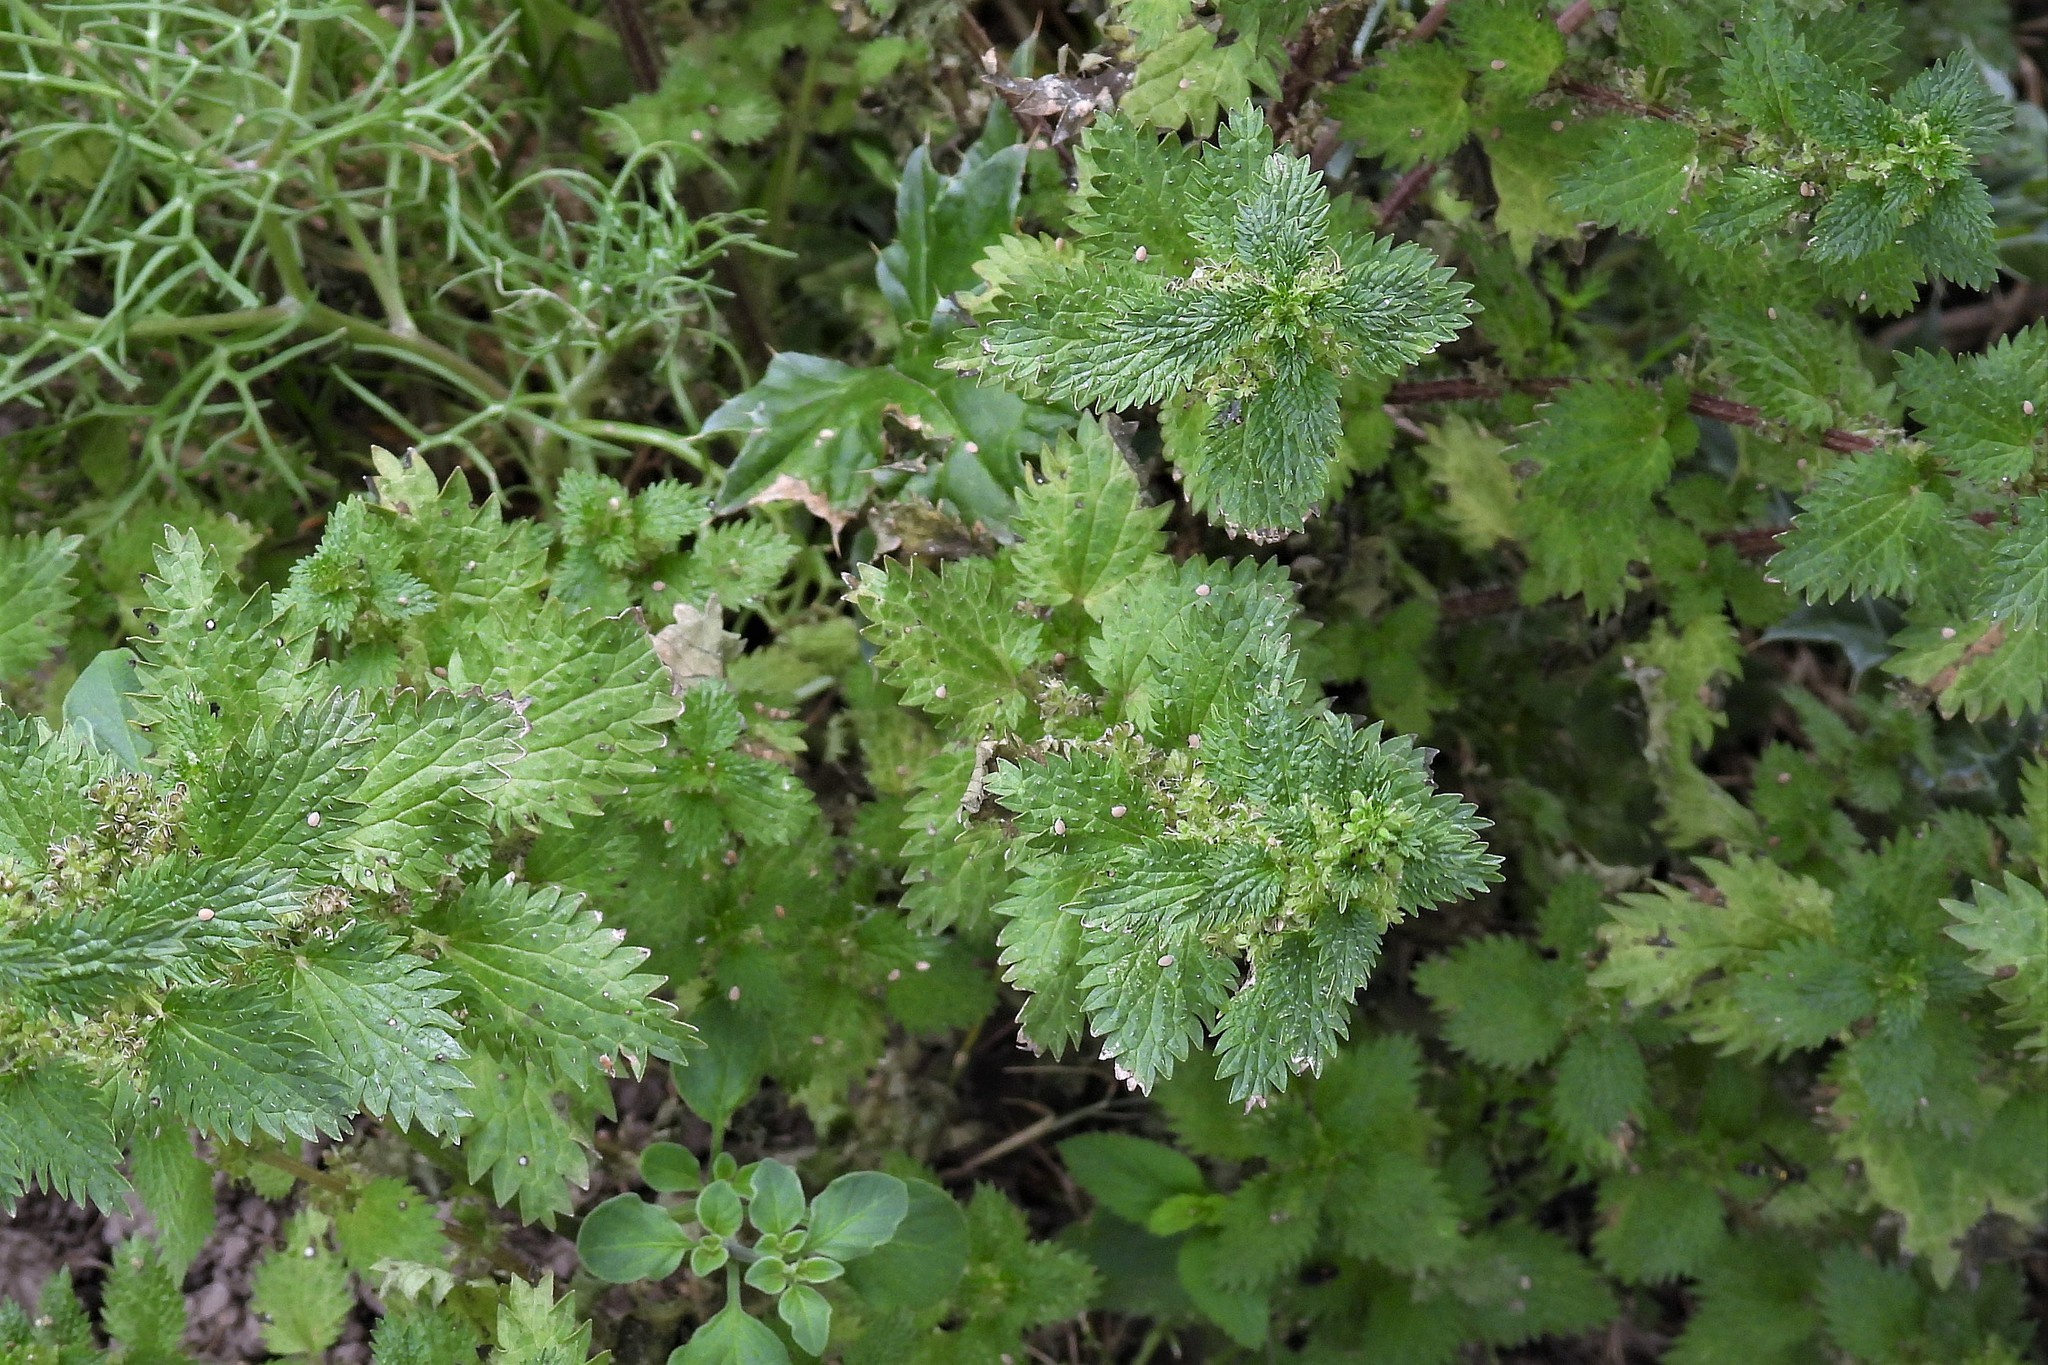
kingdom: Plantae
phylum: Tracheophyta
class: Magnoliopsida
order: Rosales
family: Urticaceae
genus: Urtica
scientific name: Urtica urens
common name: Dwarf nettle
